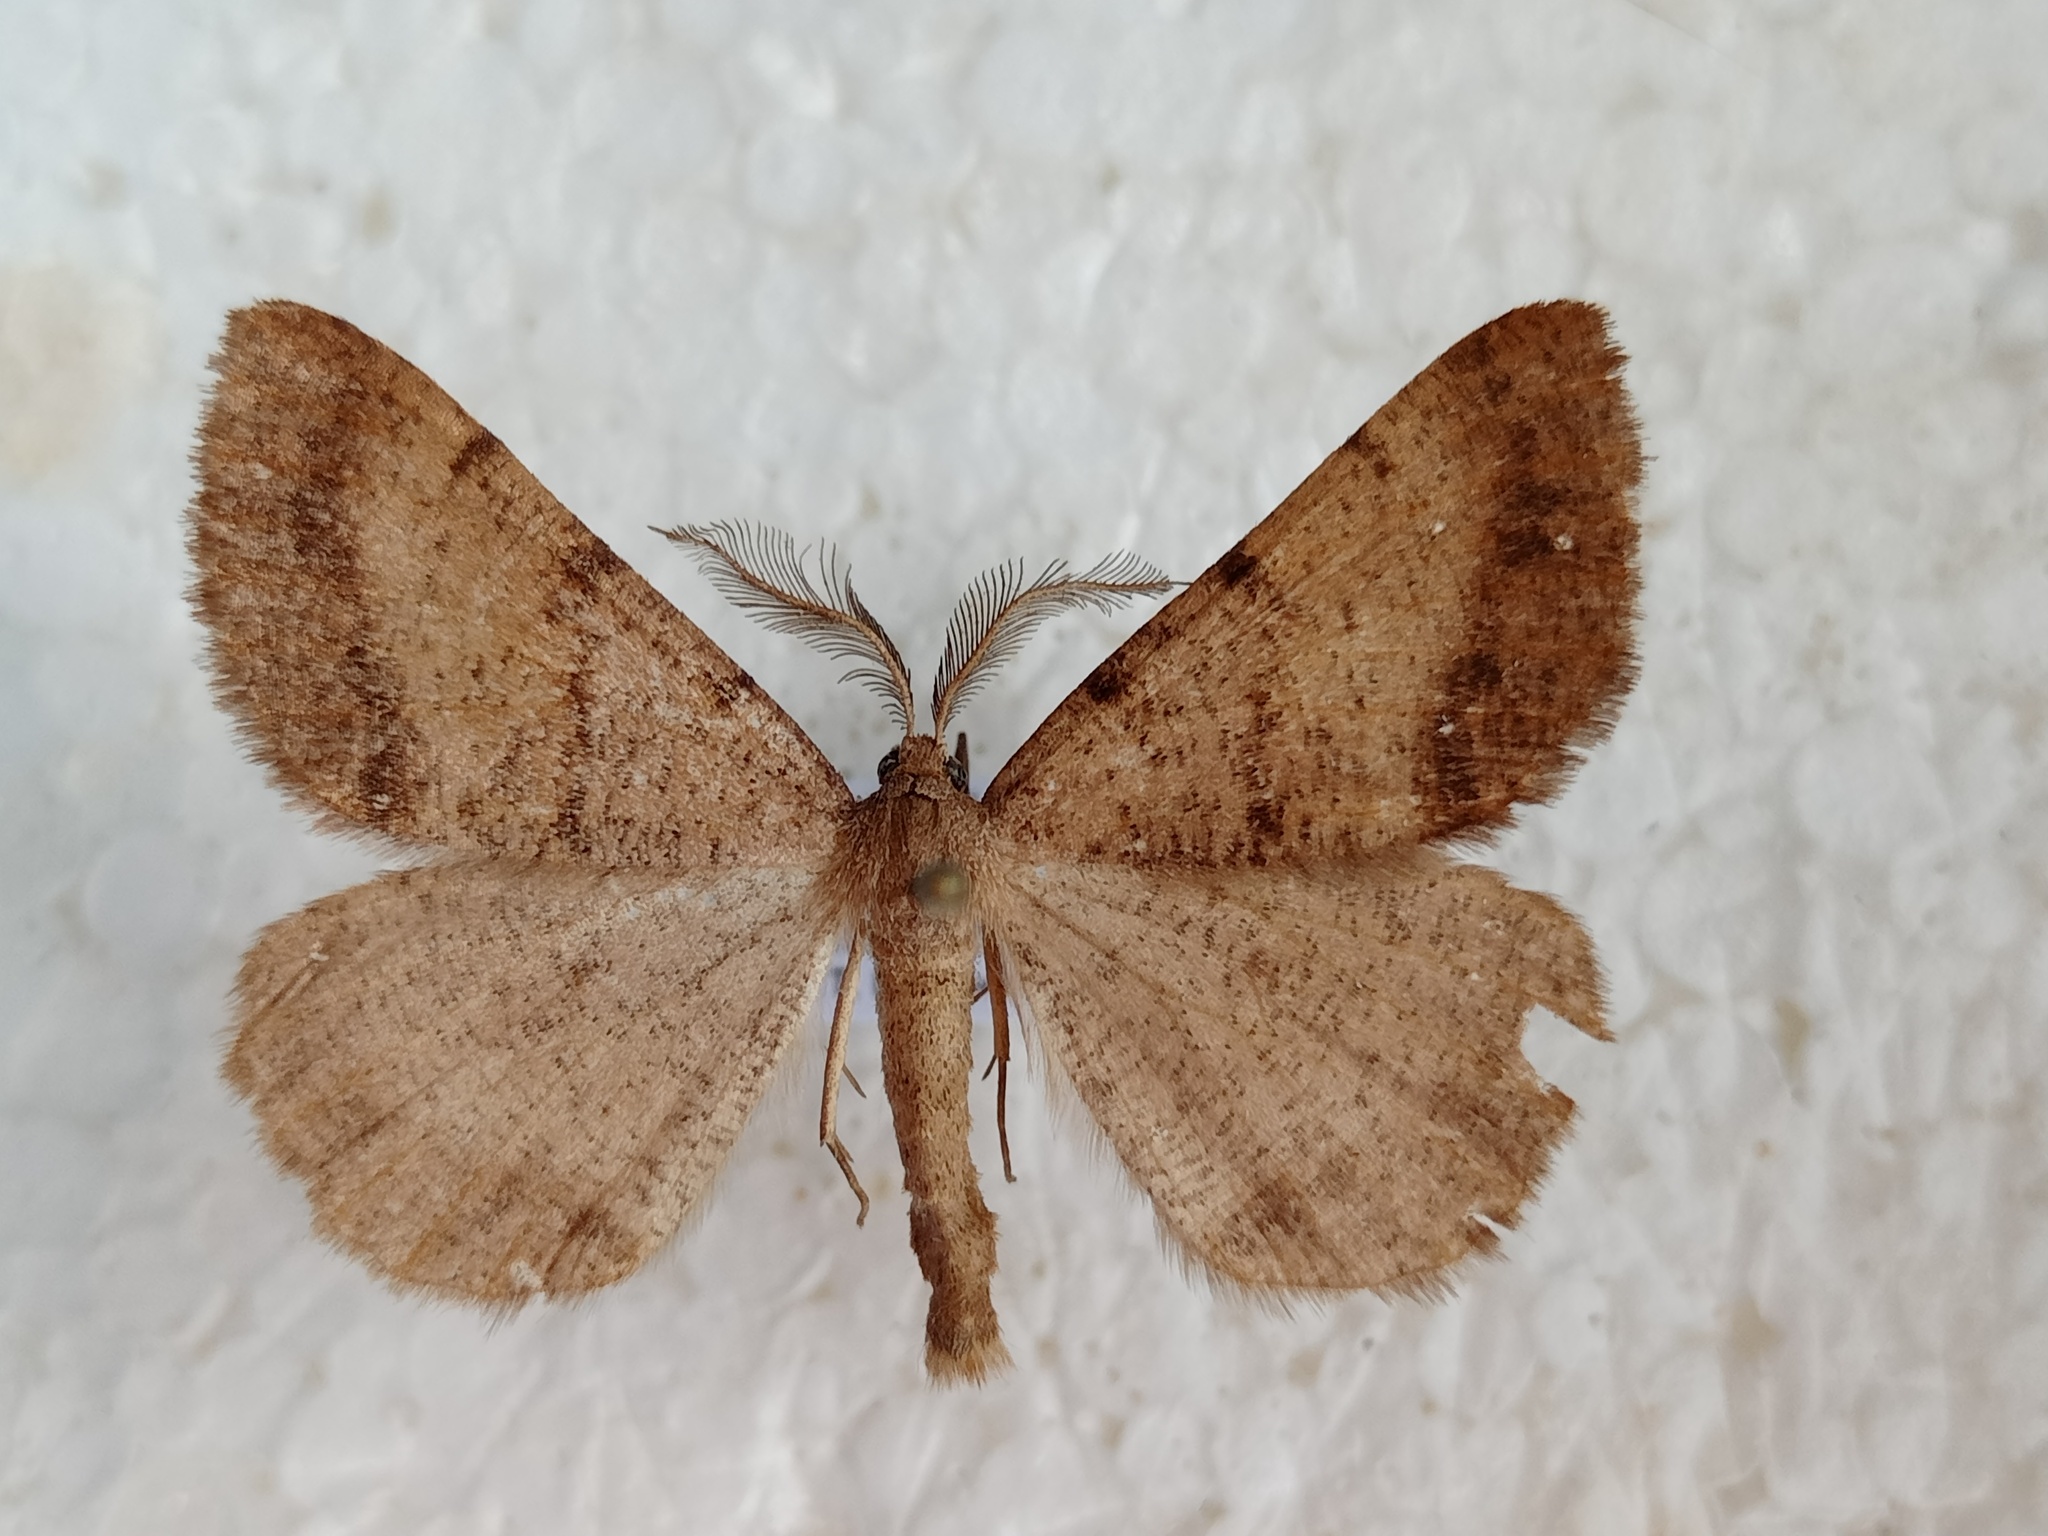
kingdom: Animalia
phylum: Arthropoda
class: Insecta
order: Lepidoptera
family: Geometridae
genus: Selidosema
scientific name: Selidosema brunnearia
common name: Bordered grey
